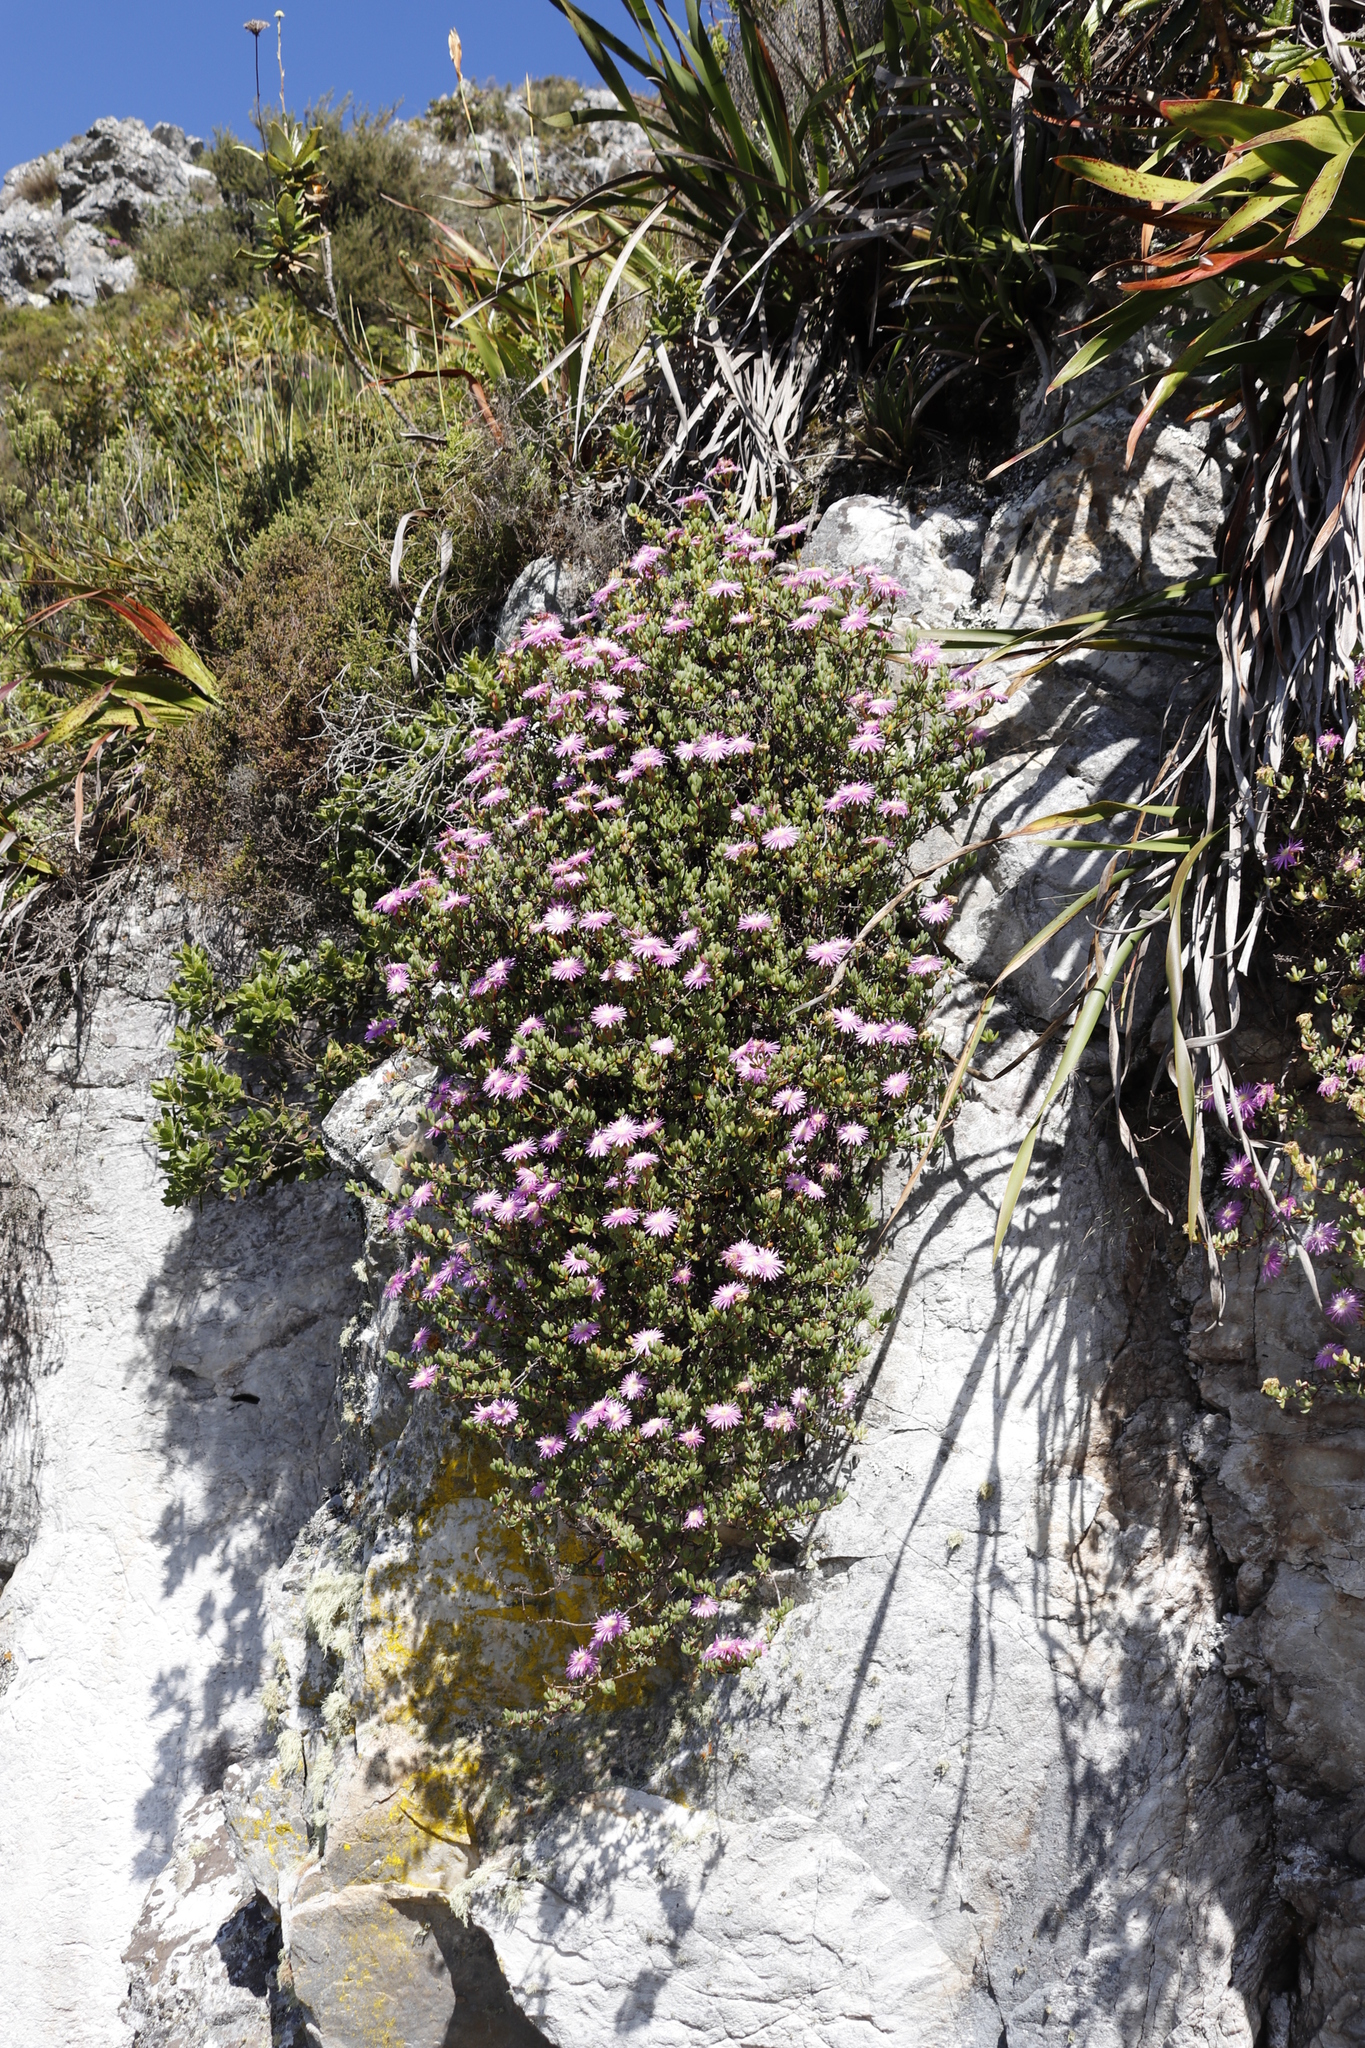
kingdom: Plantae
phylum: Tracheophyta
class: Magnoliopsida
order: Caryophyllales
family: Aizoaceae
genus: Oscularia
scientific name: Oscularia falciformis
